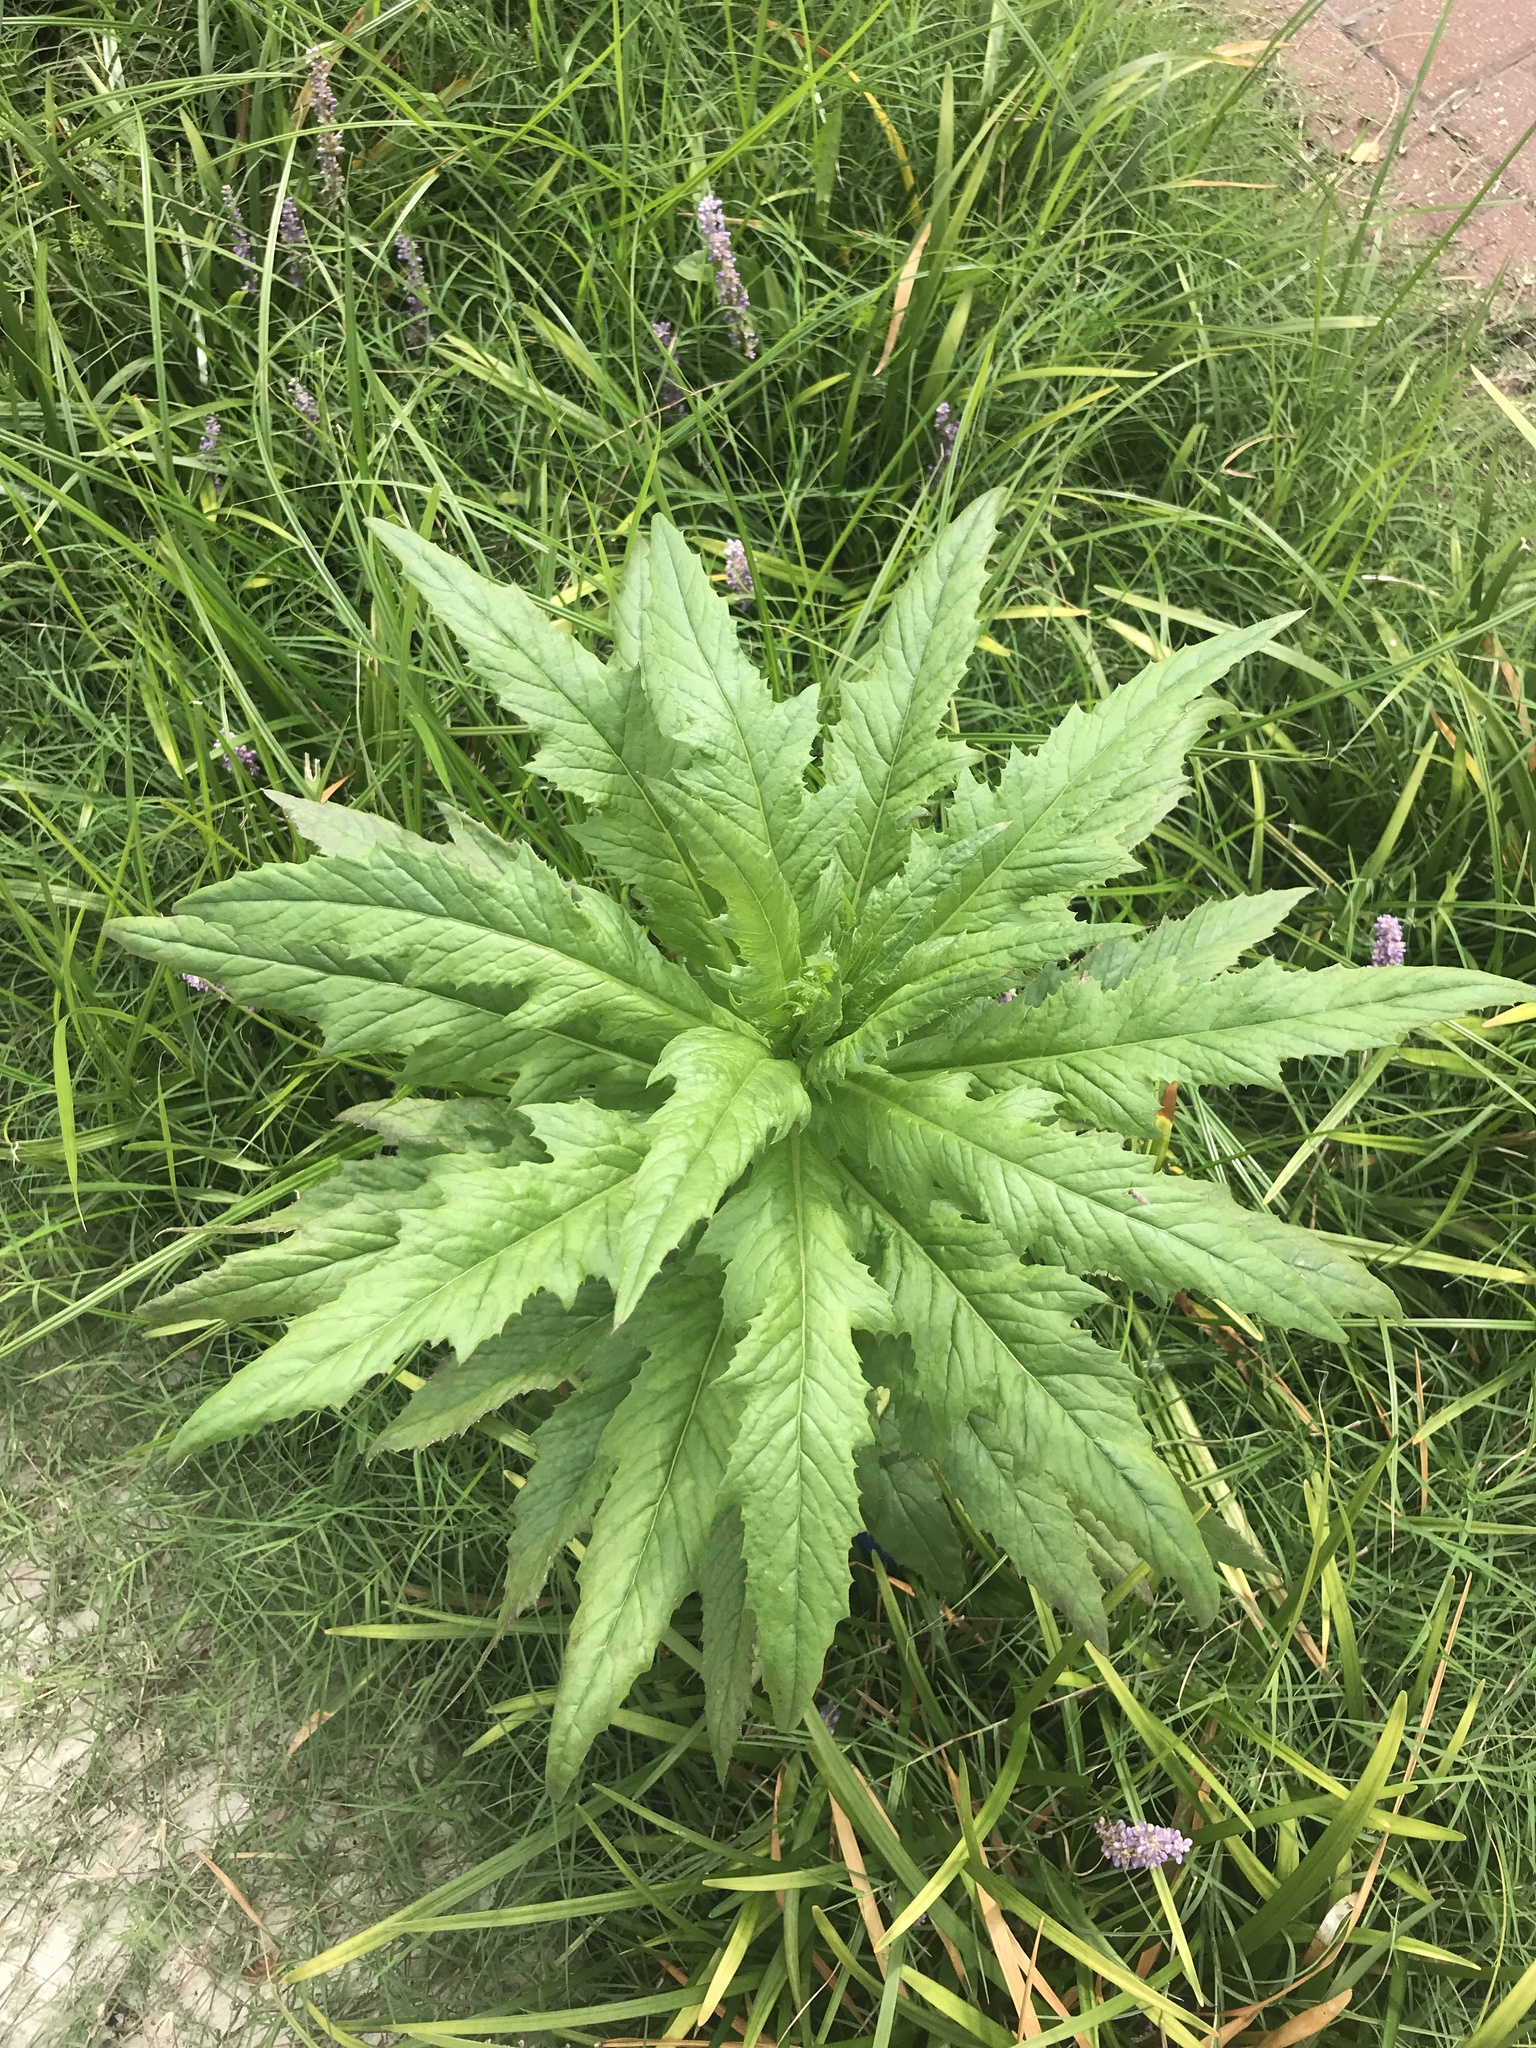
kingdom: Plantae
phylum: Tracheophyta
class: Magnoliopsida
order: Asterales
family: Asteraceae
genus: Erechtites
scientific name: Erechtites hieraciifolius
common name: American burnweed
